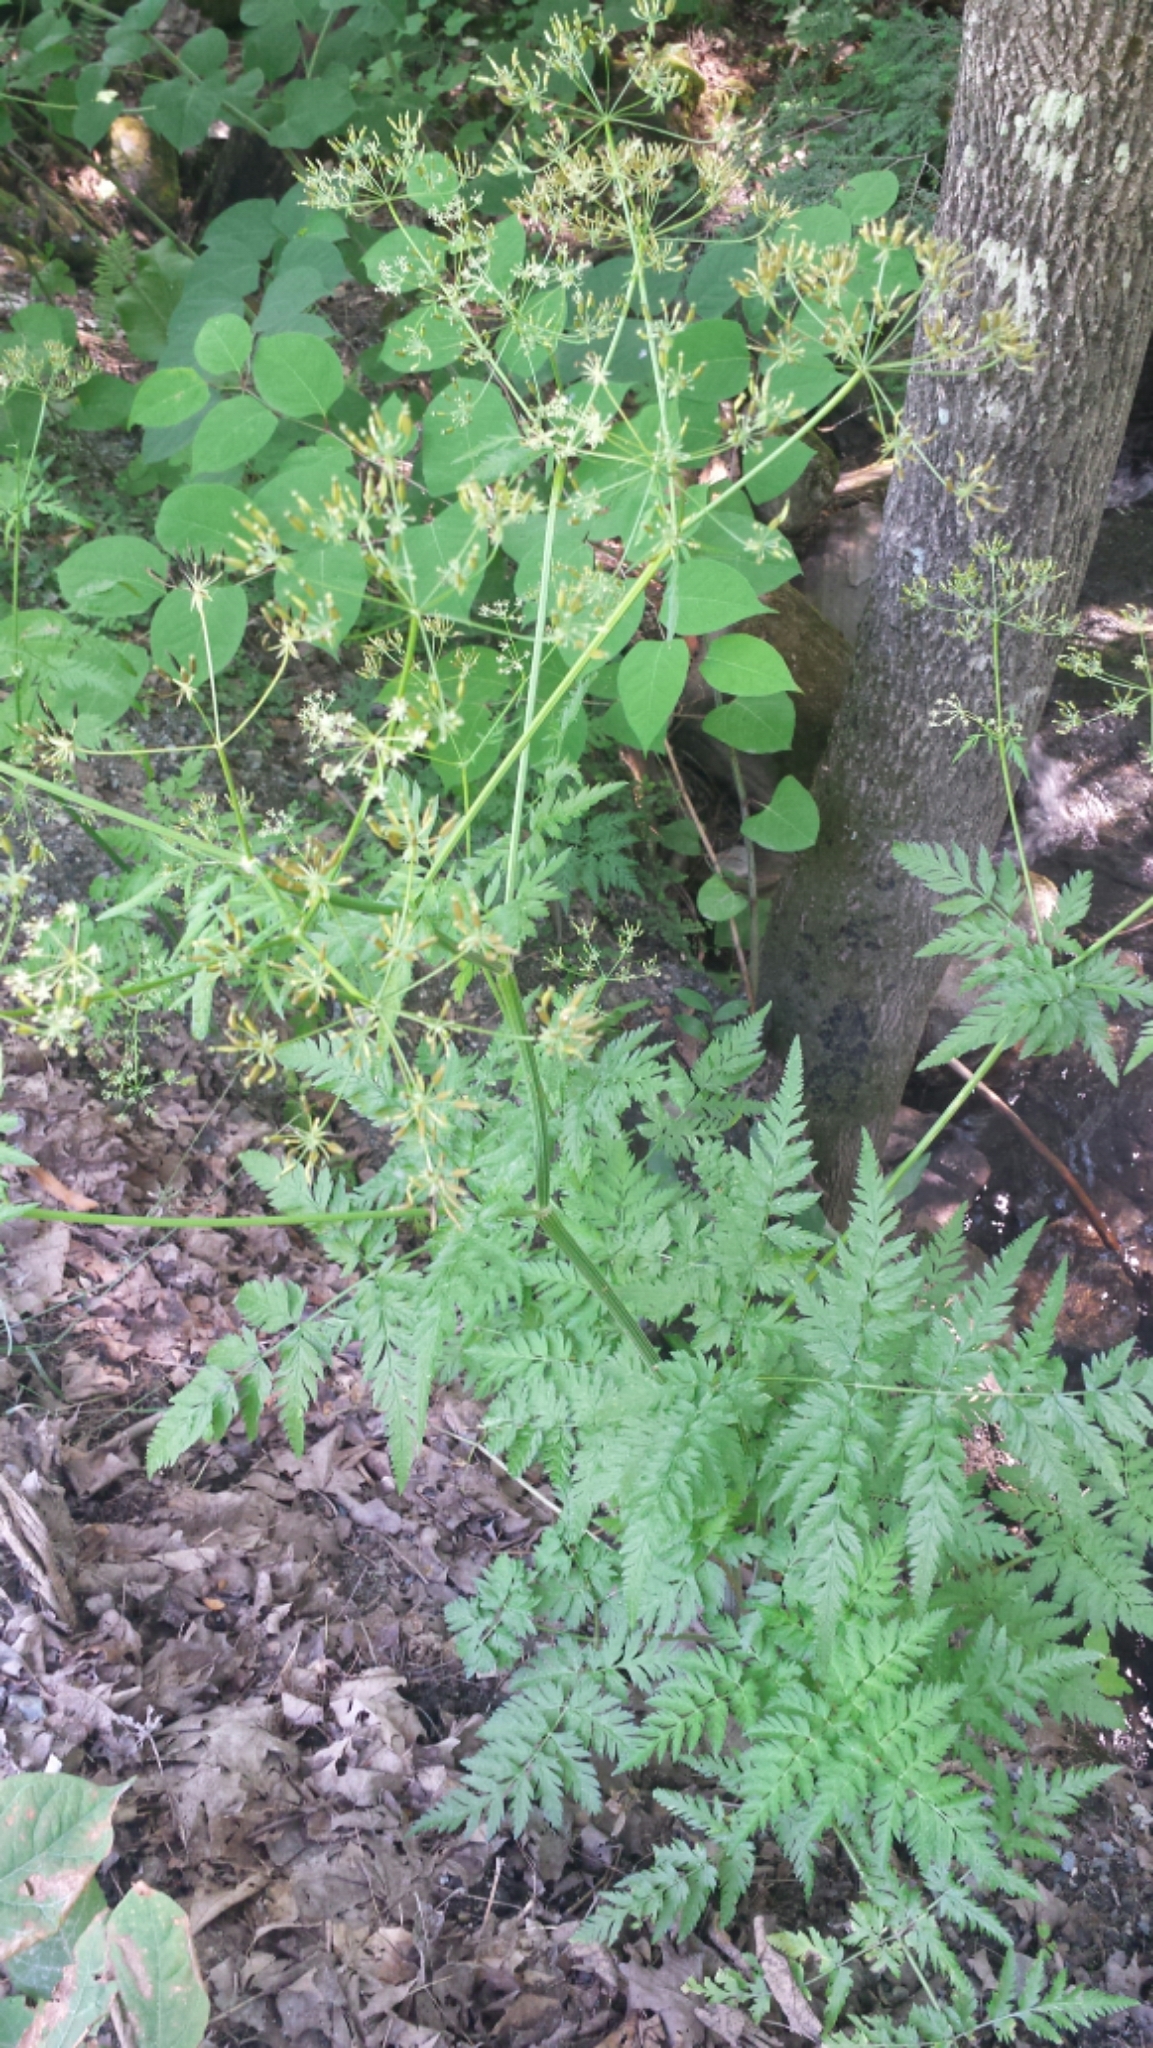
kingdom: Plantae
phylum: Tracheophyta
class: Magnoliopsida
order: Apiales
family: Apiaceae
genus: Anthriscus
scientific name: Anthriscus sylvestris
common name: Cow parsley
